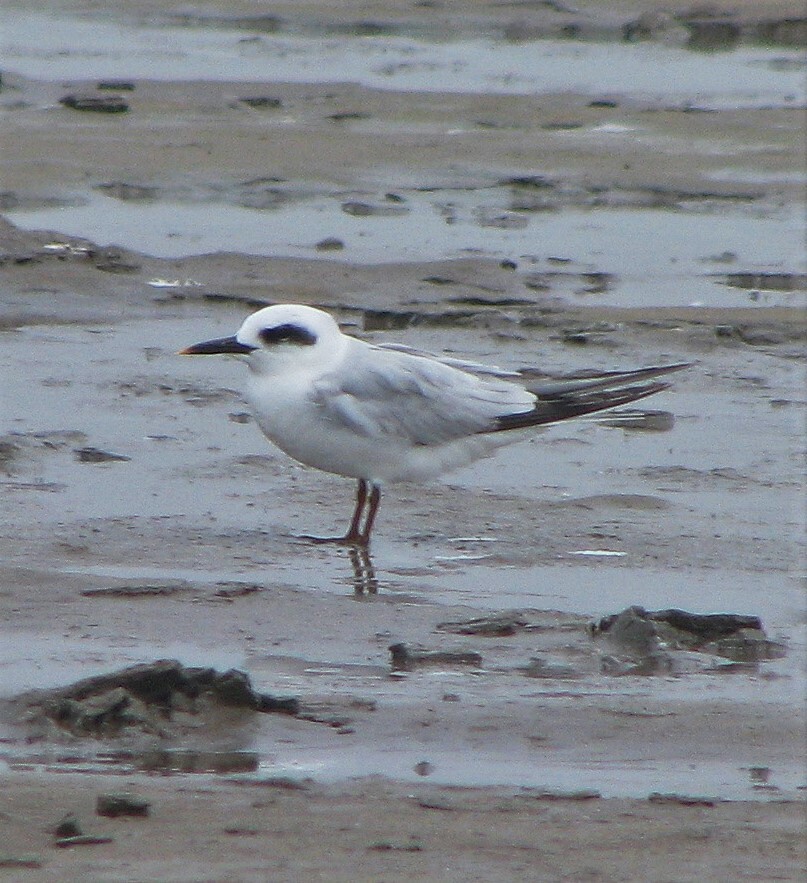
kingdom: Animalia
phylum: Chordata
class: Aves
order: Charadriiformes
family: Laridae
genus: Sterna
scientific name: Sterna trudeaui
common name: Snowy-crowned tern
